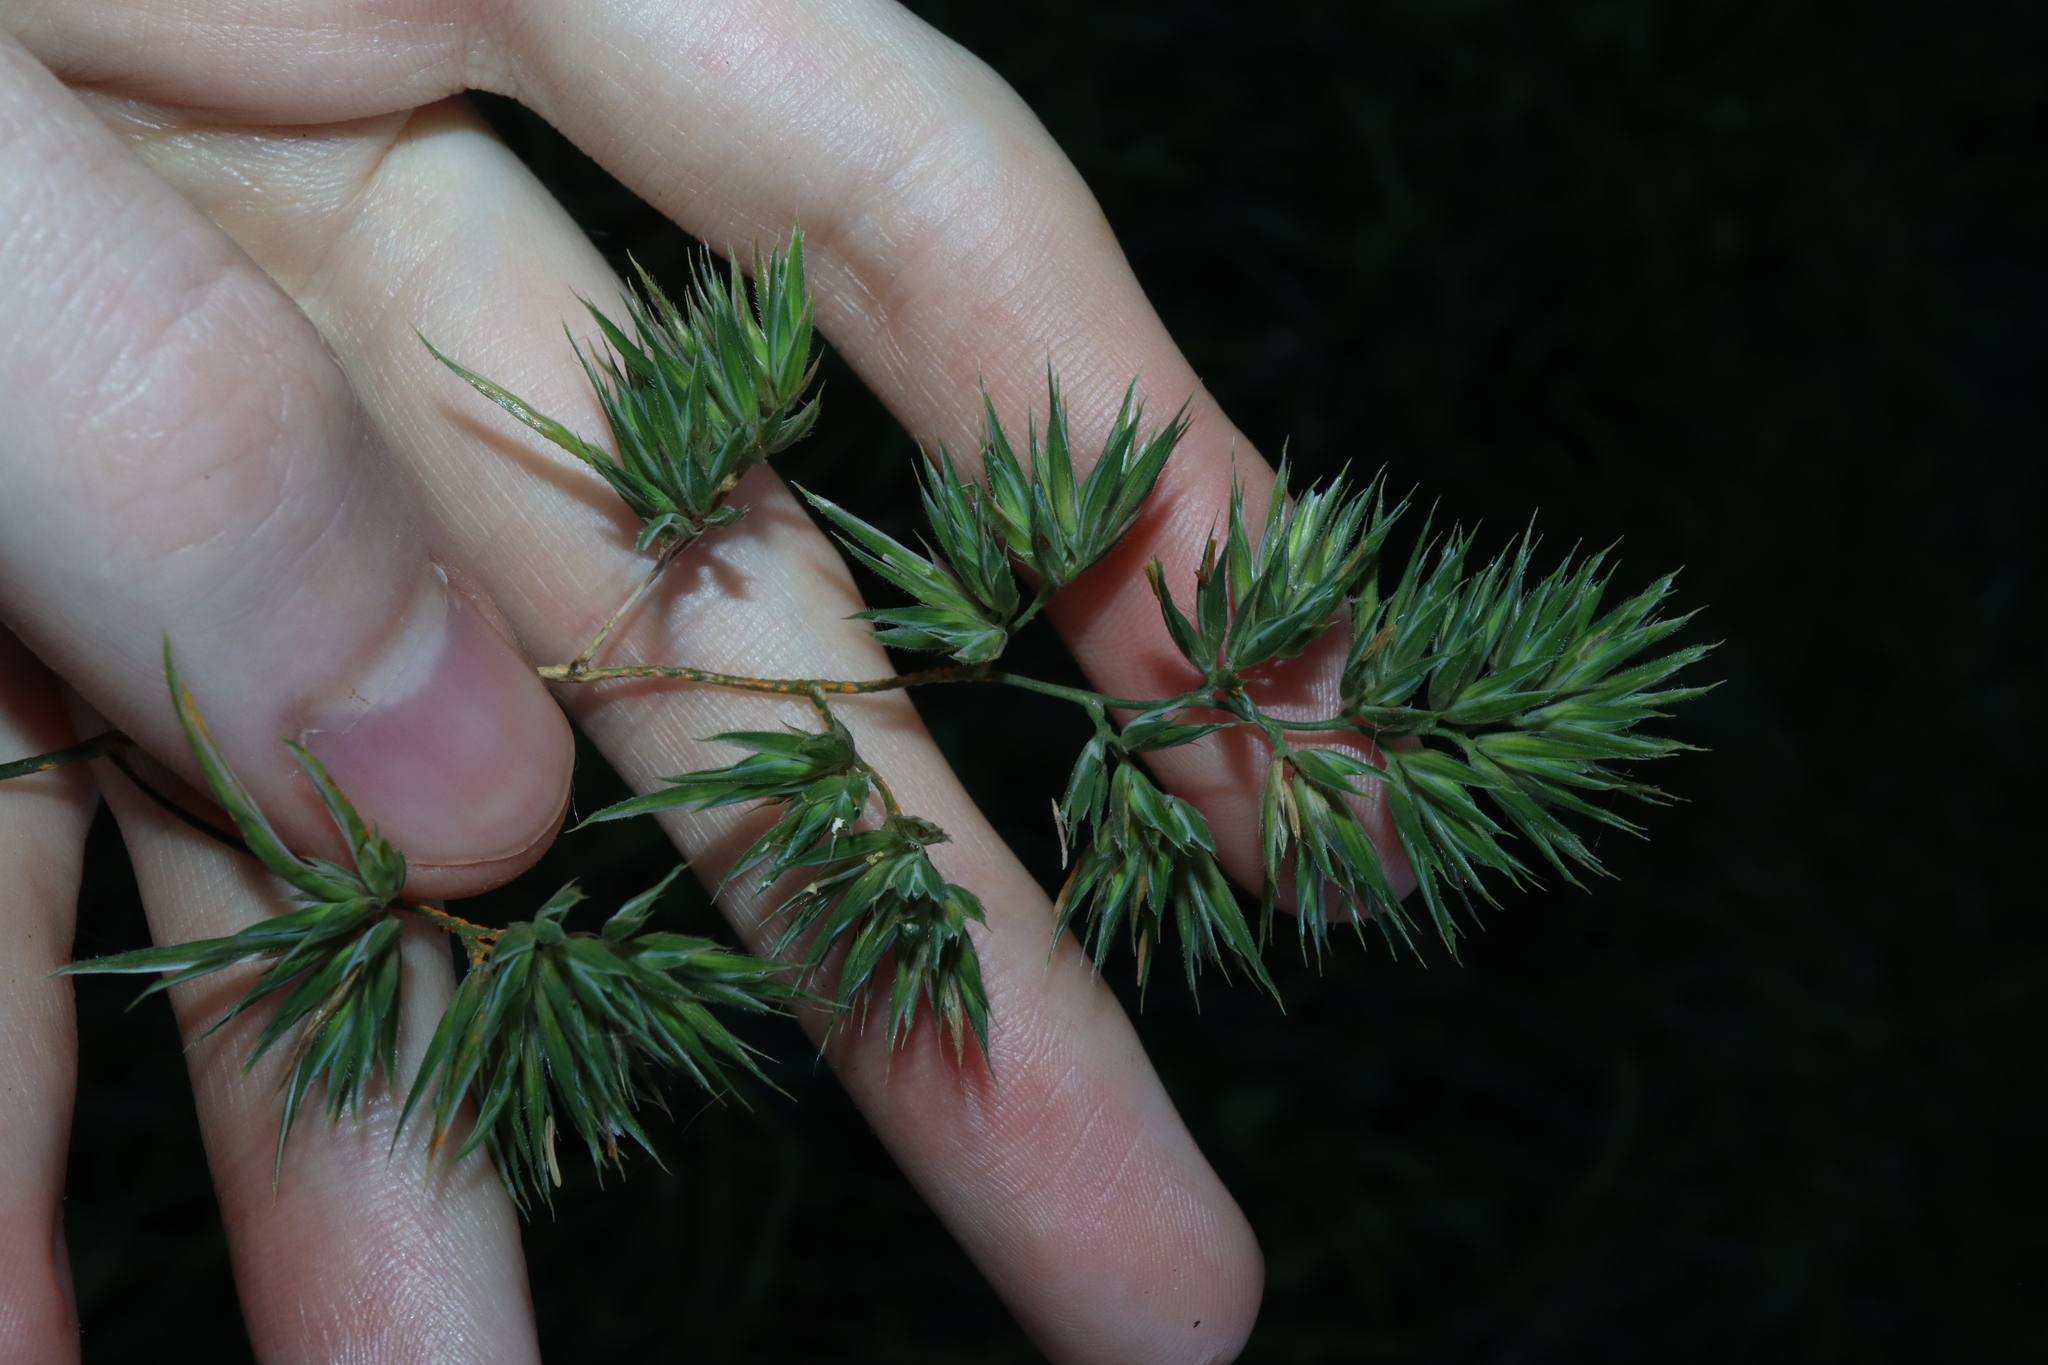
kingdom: Plantae
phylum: Tracheophyta
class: Liliopsida
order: Poales
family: Poaceae
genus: Dactylis
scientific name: Dactylis glomerata
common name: Orchardgrass
